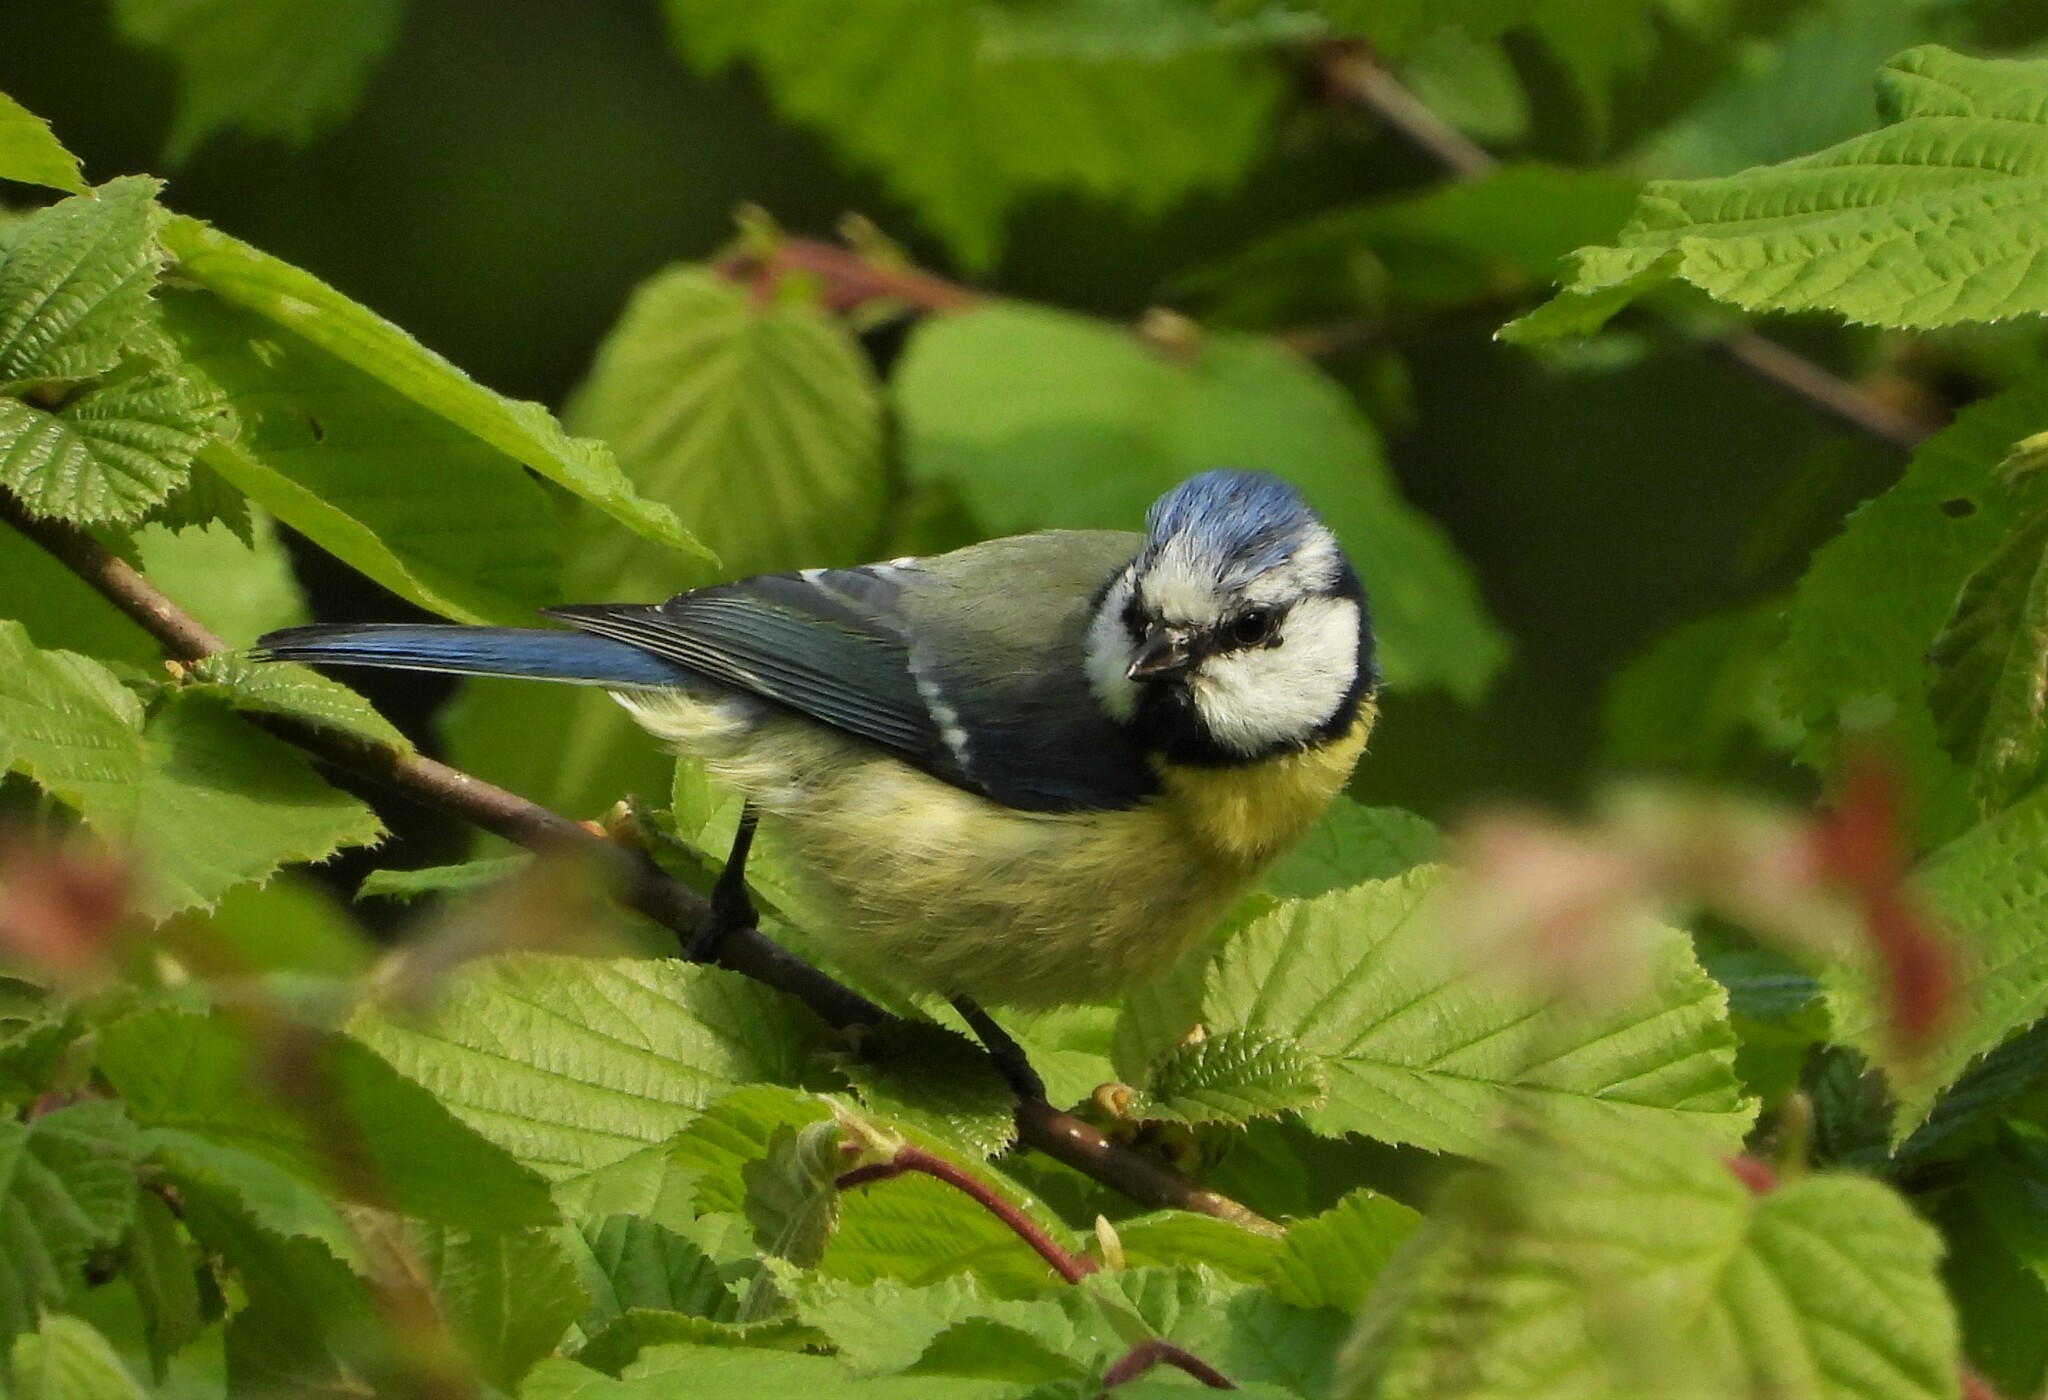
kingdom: Animalia
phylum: Chordata
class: Aves
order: Passeriformes
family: Paridae
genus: Cyanistes
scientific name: Cyanistes caeruleus
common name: Eurasian blue tit
